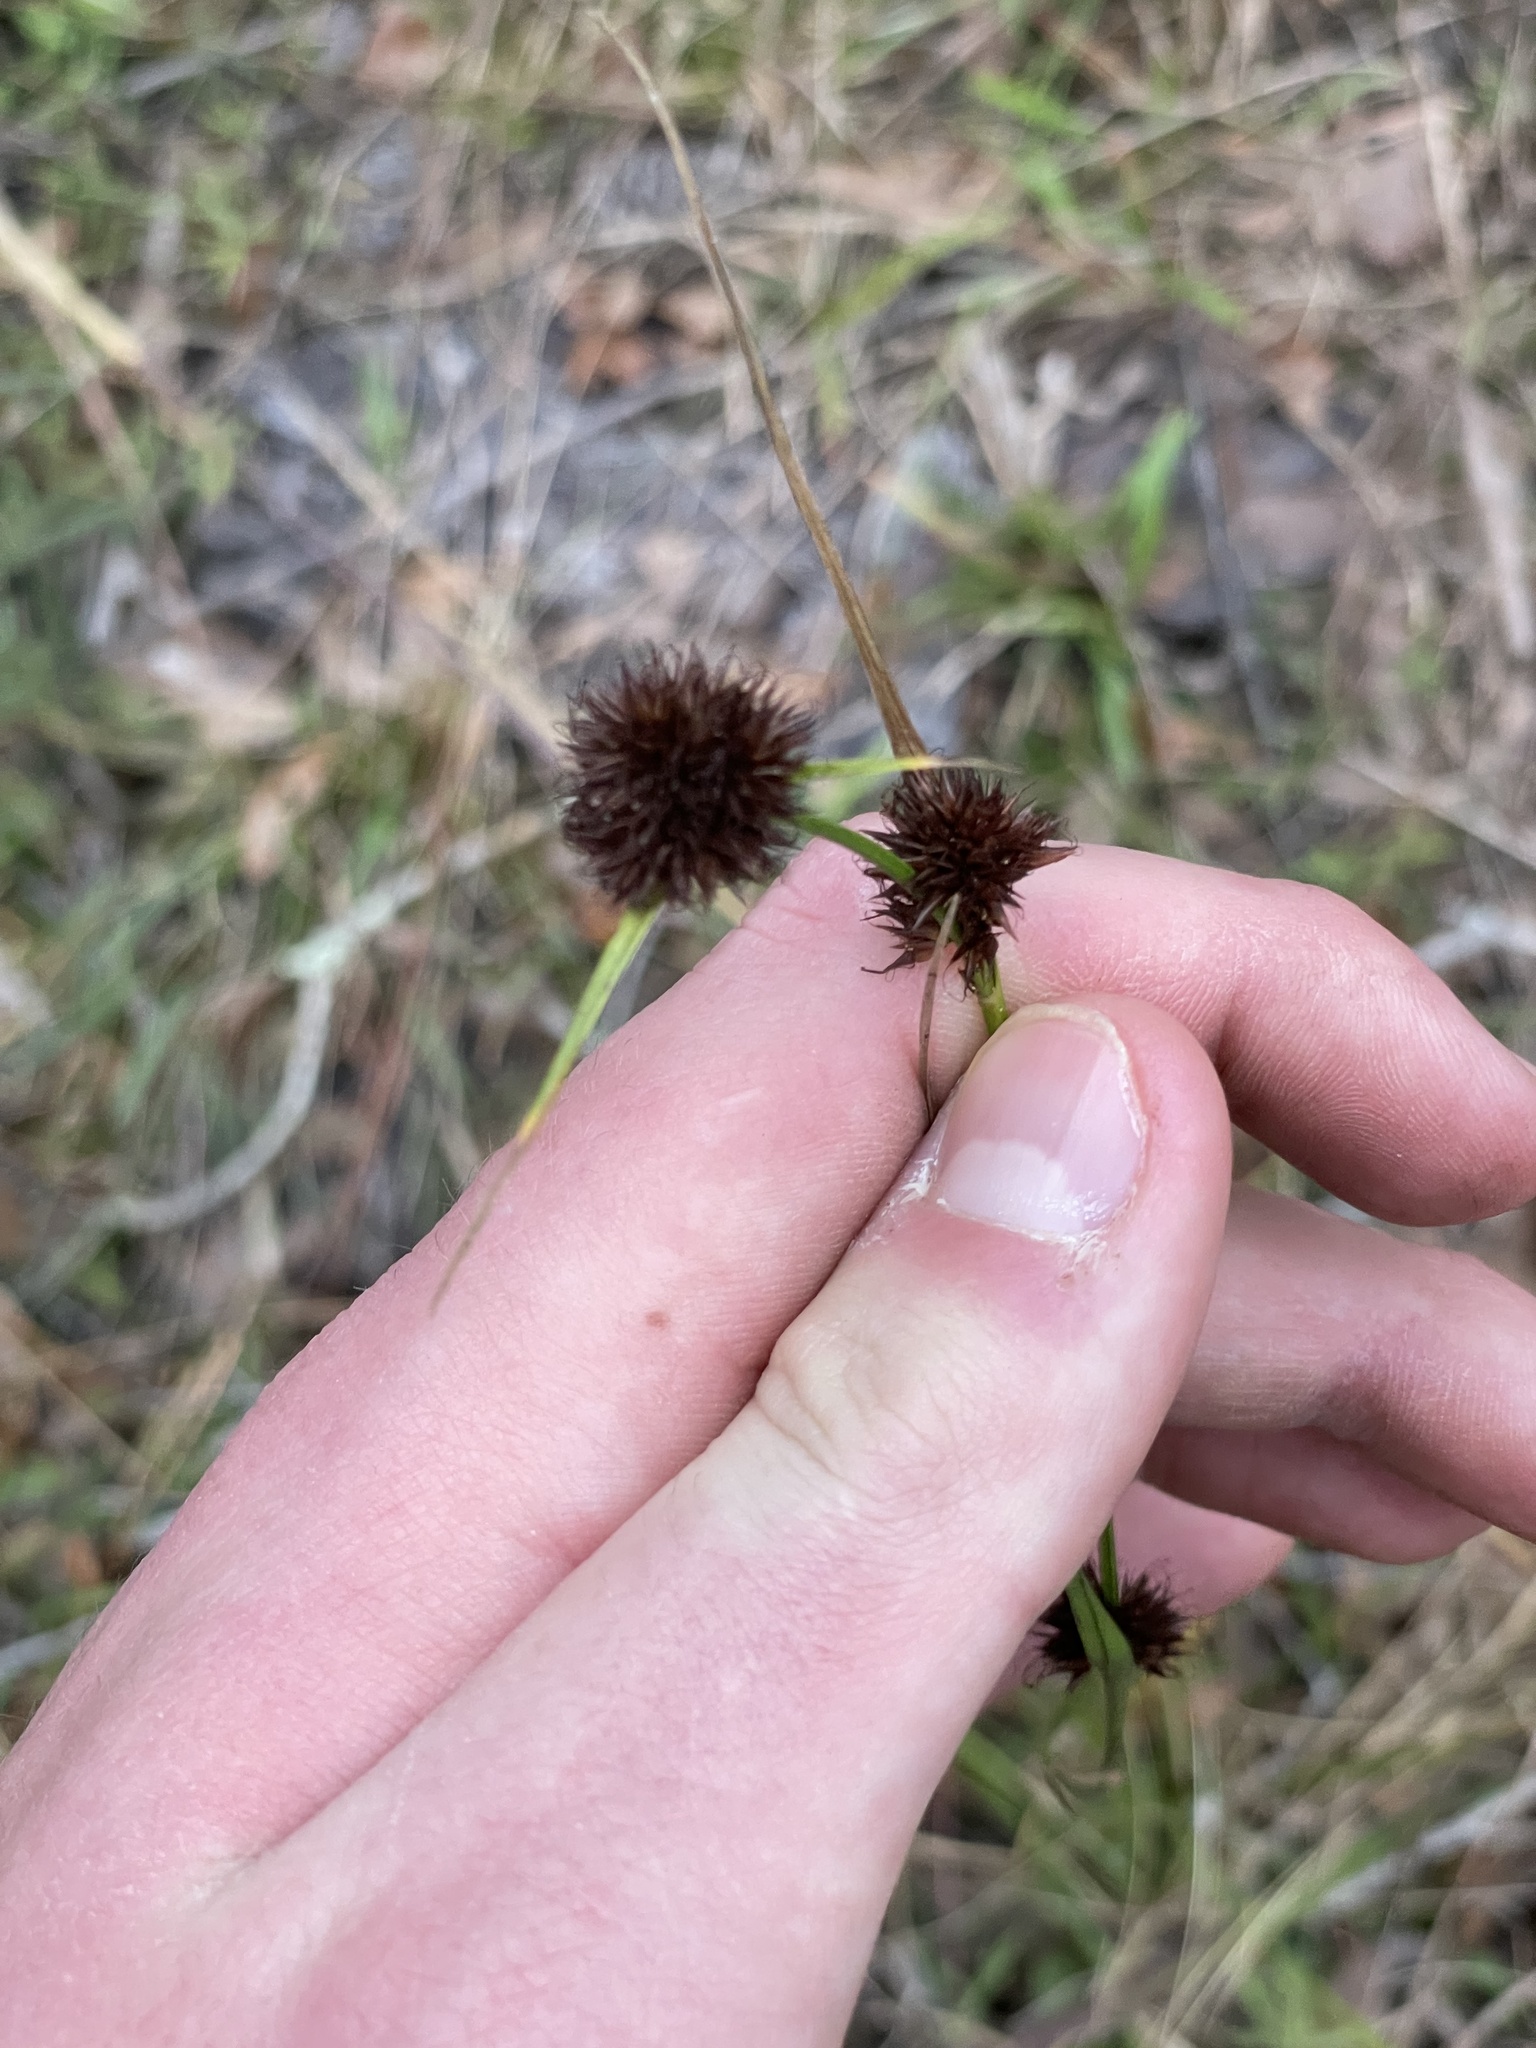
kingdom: Plantae
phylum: Tracheophyta
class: Liliopsida
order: Poales
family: Cyperaceae
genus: Rhynchospora
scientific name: Rhynchospora cephalantha
